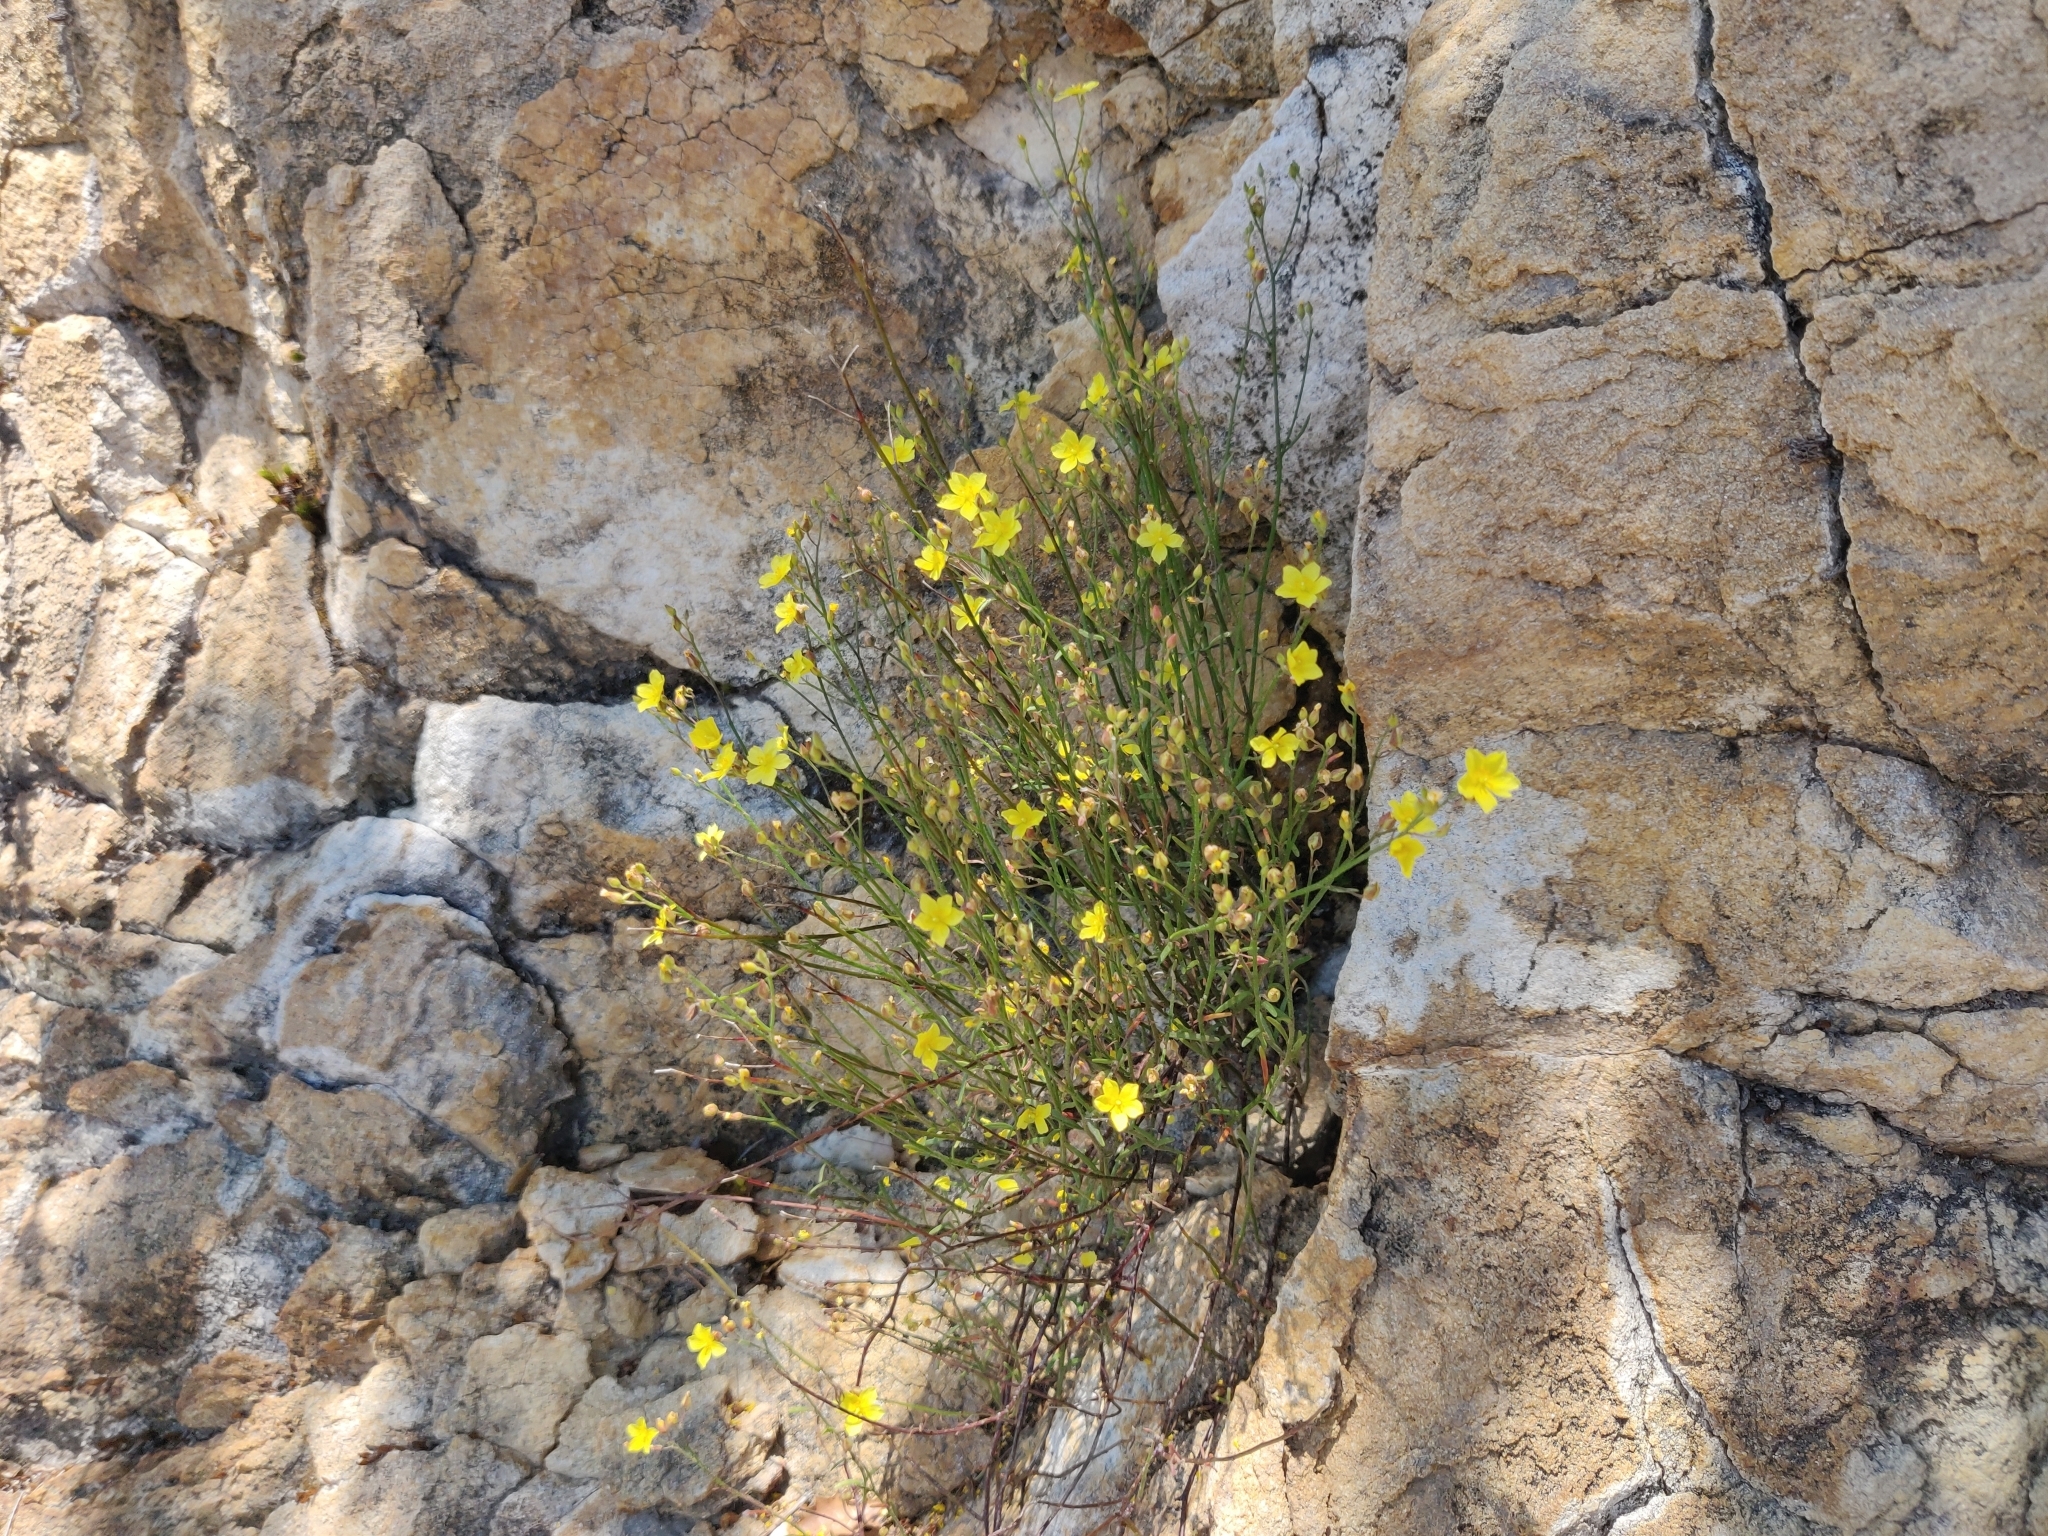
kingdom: Plantae
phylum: Tracheophyta
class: Magnoliopsida
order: Malvales
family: Cistaceae
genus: Crocanthemum
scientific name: Crocanthemum scoparium
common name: Broom-rose
